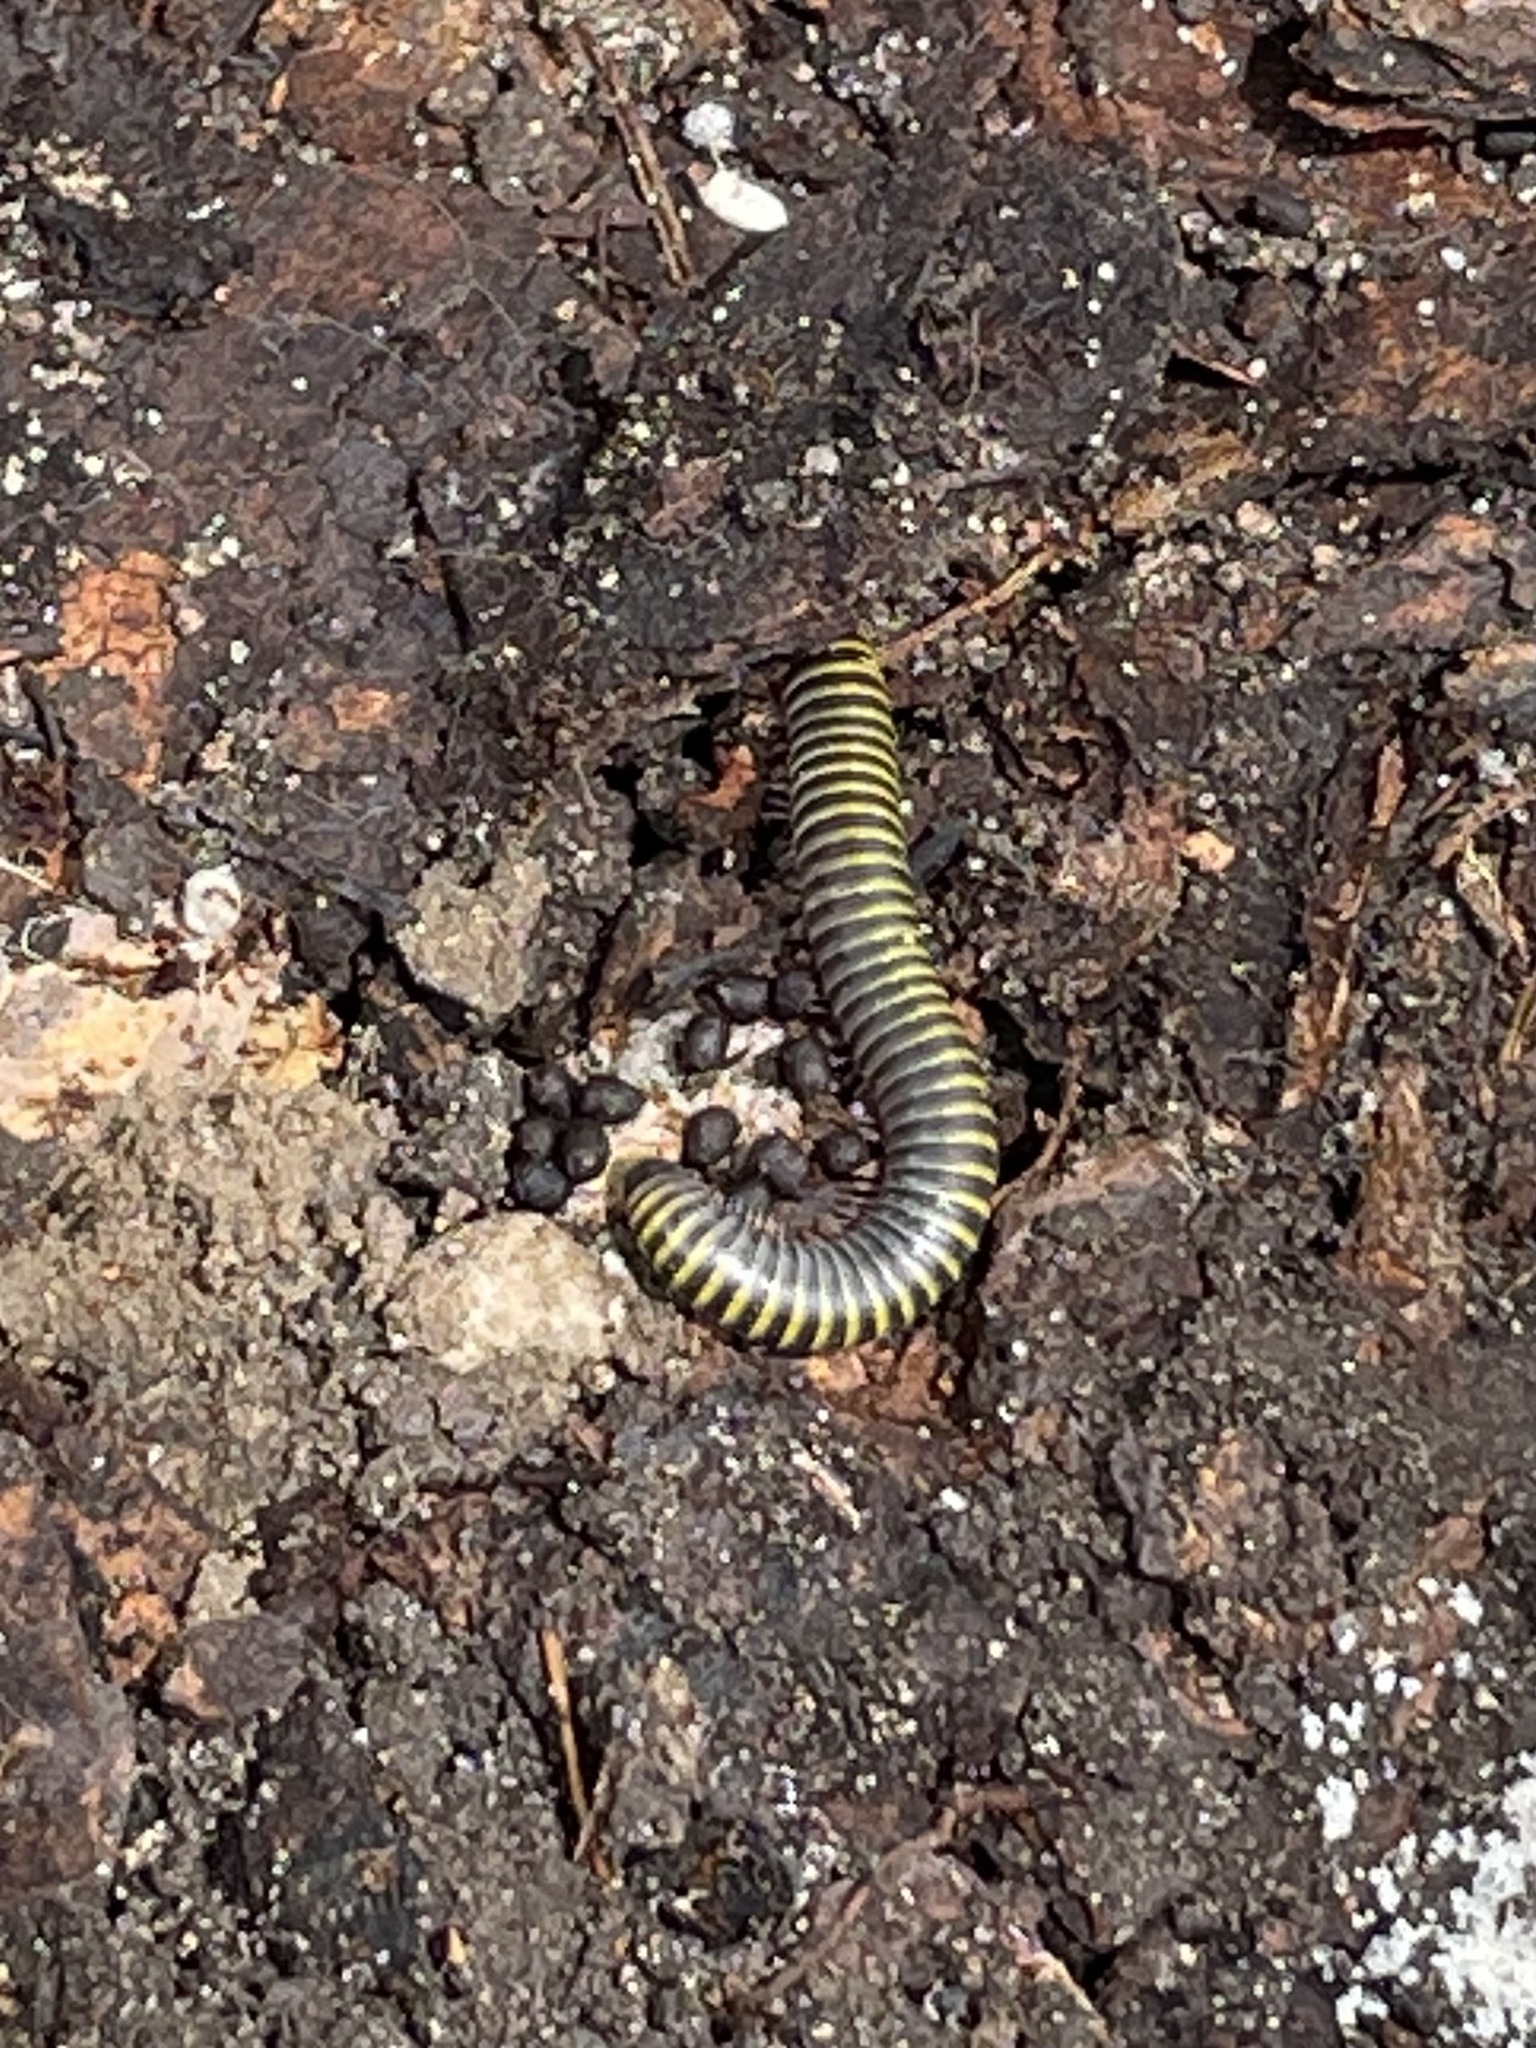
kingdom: Animalia
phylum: Arthropoda
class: Diplopoda
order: Spirobolida
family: Rhinocricidae
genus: Anadenobolus
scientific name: Anadenobolus monilicornis
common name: Caribbean millipede
